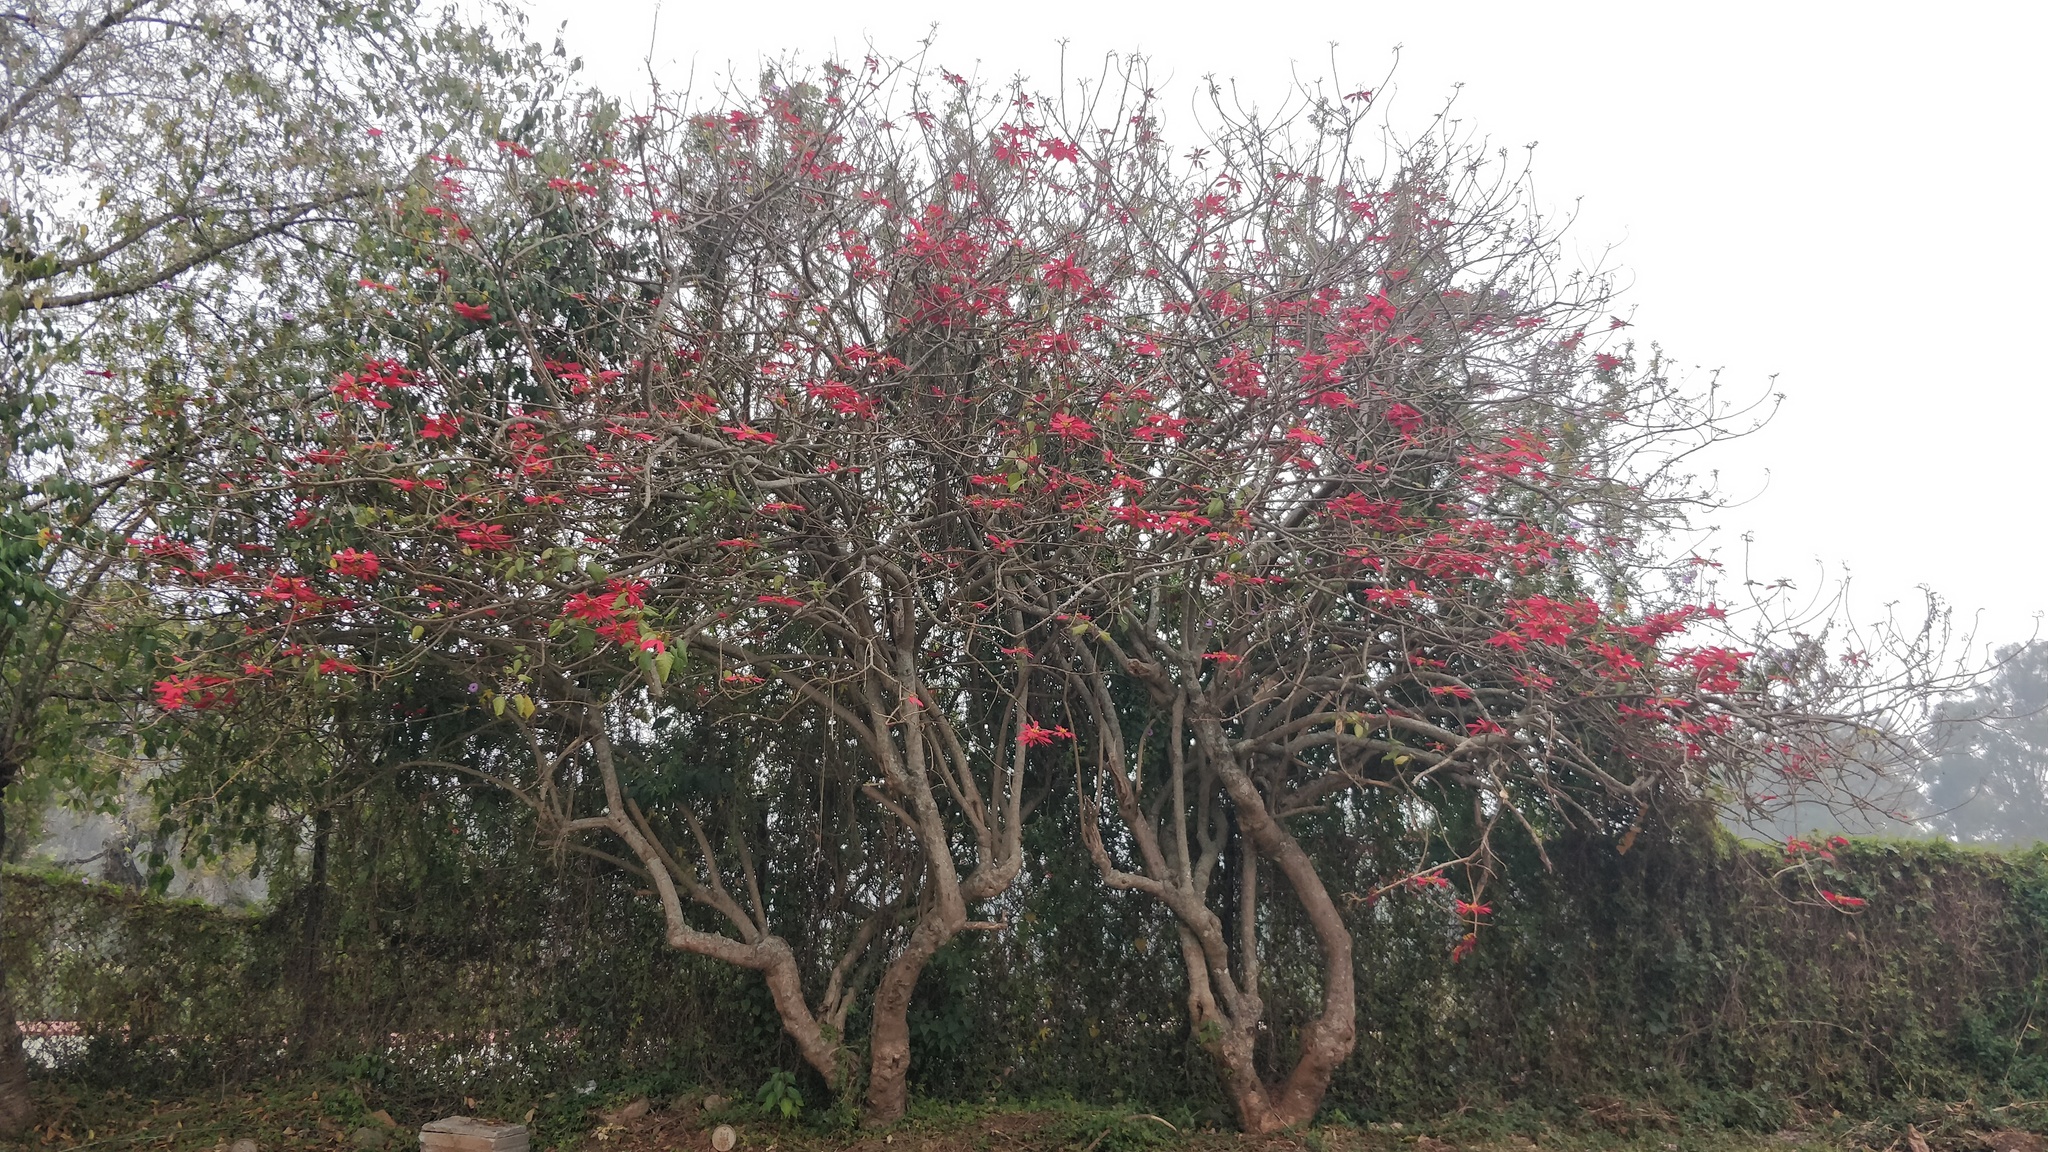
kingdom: Plantae
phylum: Tracheophyta
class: Magnoliopsida
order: Malpighiales
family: Euphorbiaceae
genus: Euphorbia
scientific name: Euphorbia pulcherrima
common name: Christmas-flower
